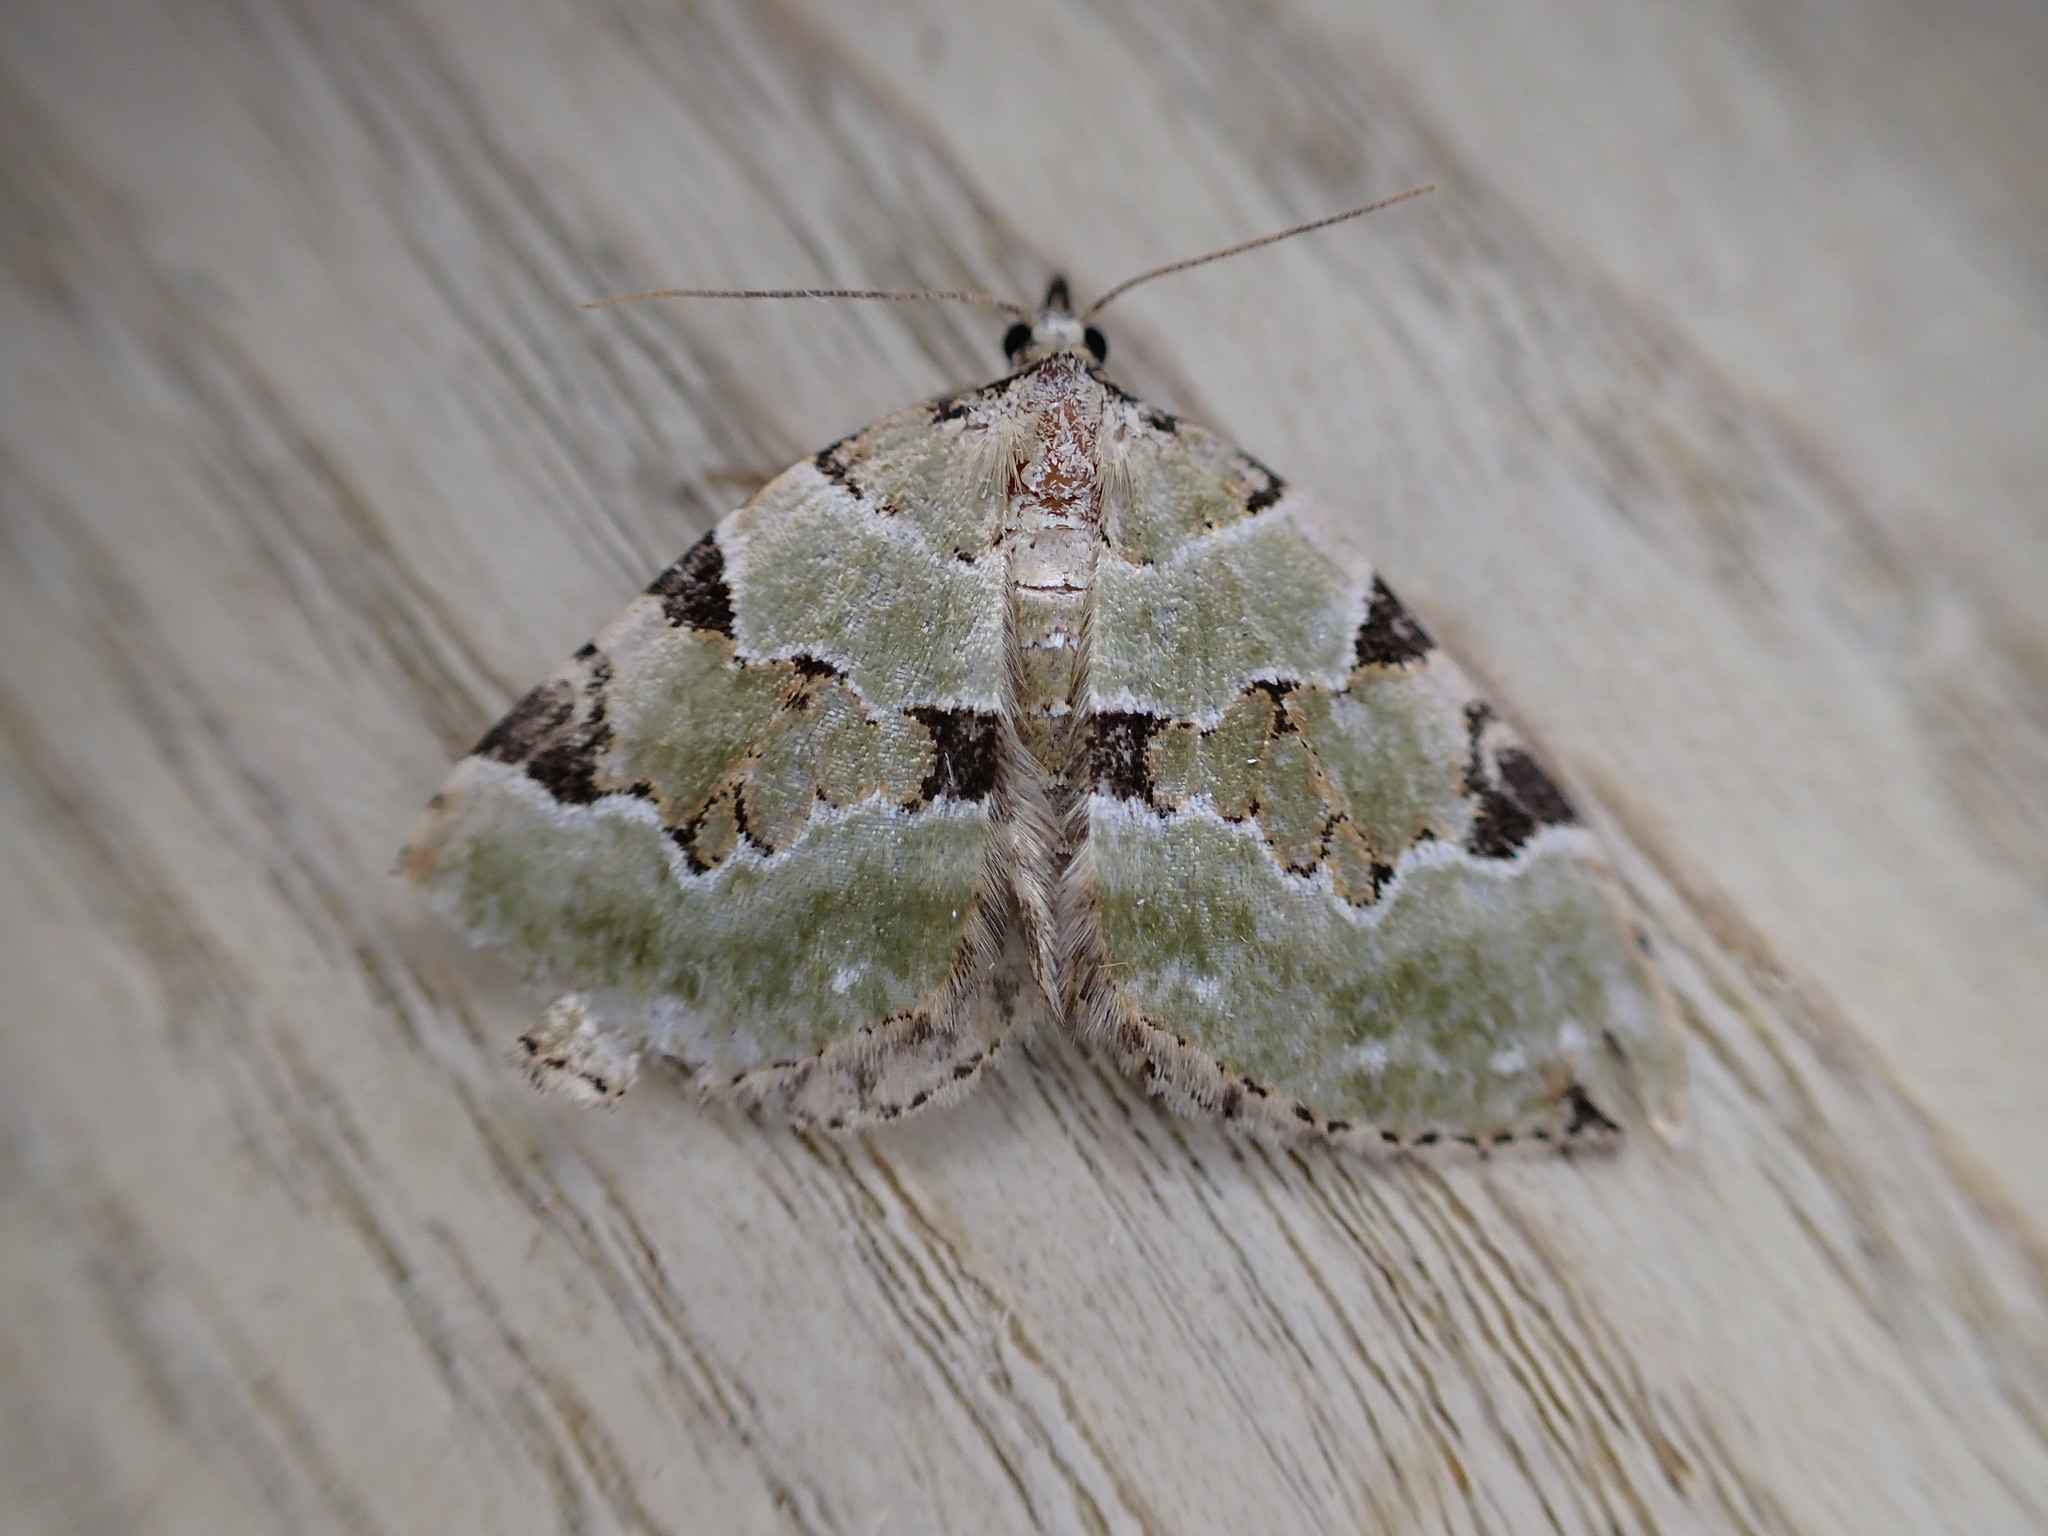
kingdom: Animalia
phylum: Arthropoda
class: Insecta
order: Lepidoptera
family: Geometridae
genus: Colostygia
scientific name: Colostygia pectinataria
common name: Green carpet
